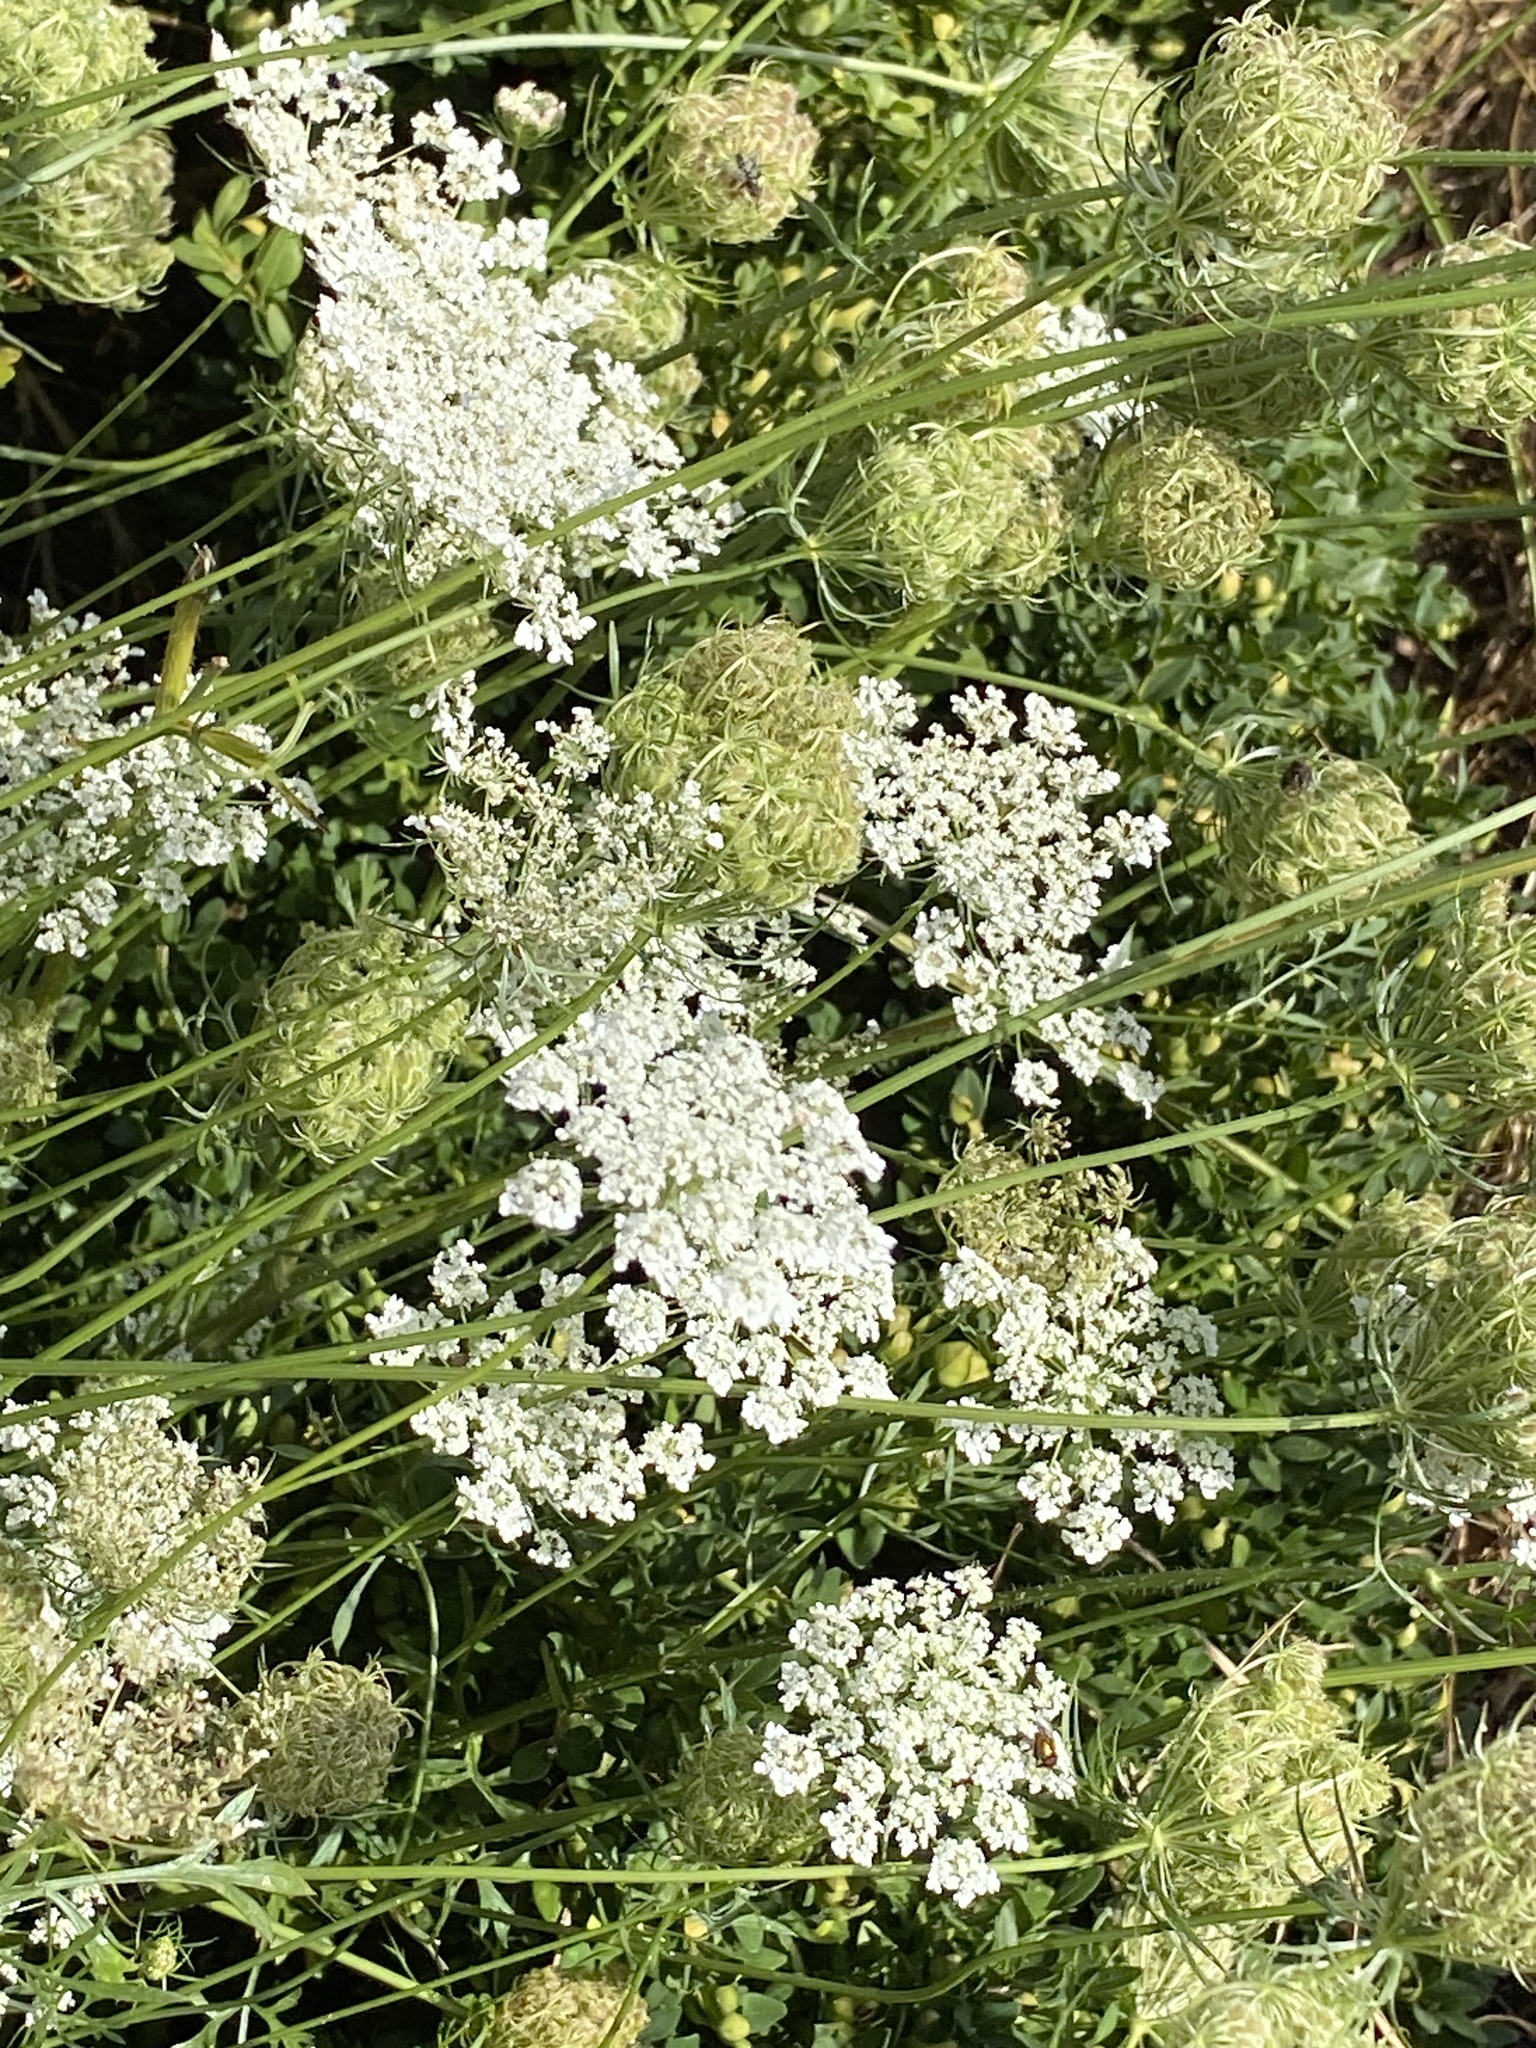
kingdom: Plantae
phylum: Tracheophyta
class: Magnoliopsida
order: Apiales
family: Apiaceae
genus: Daucus
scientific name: Daucus carota
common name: Wild carrot
